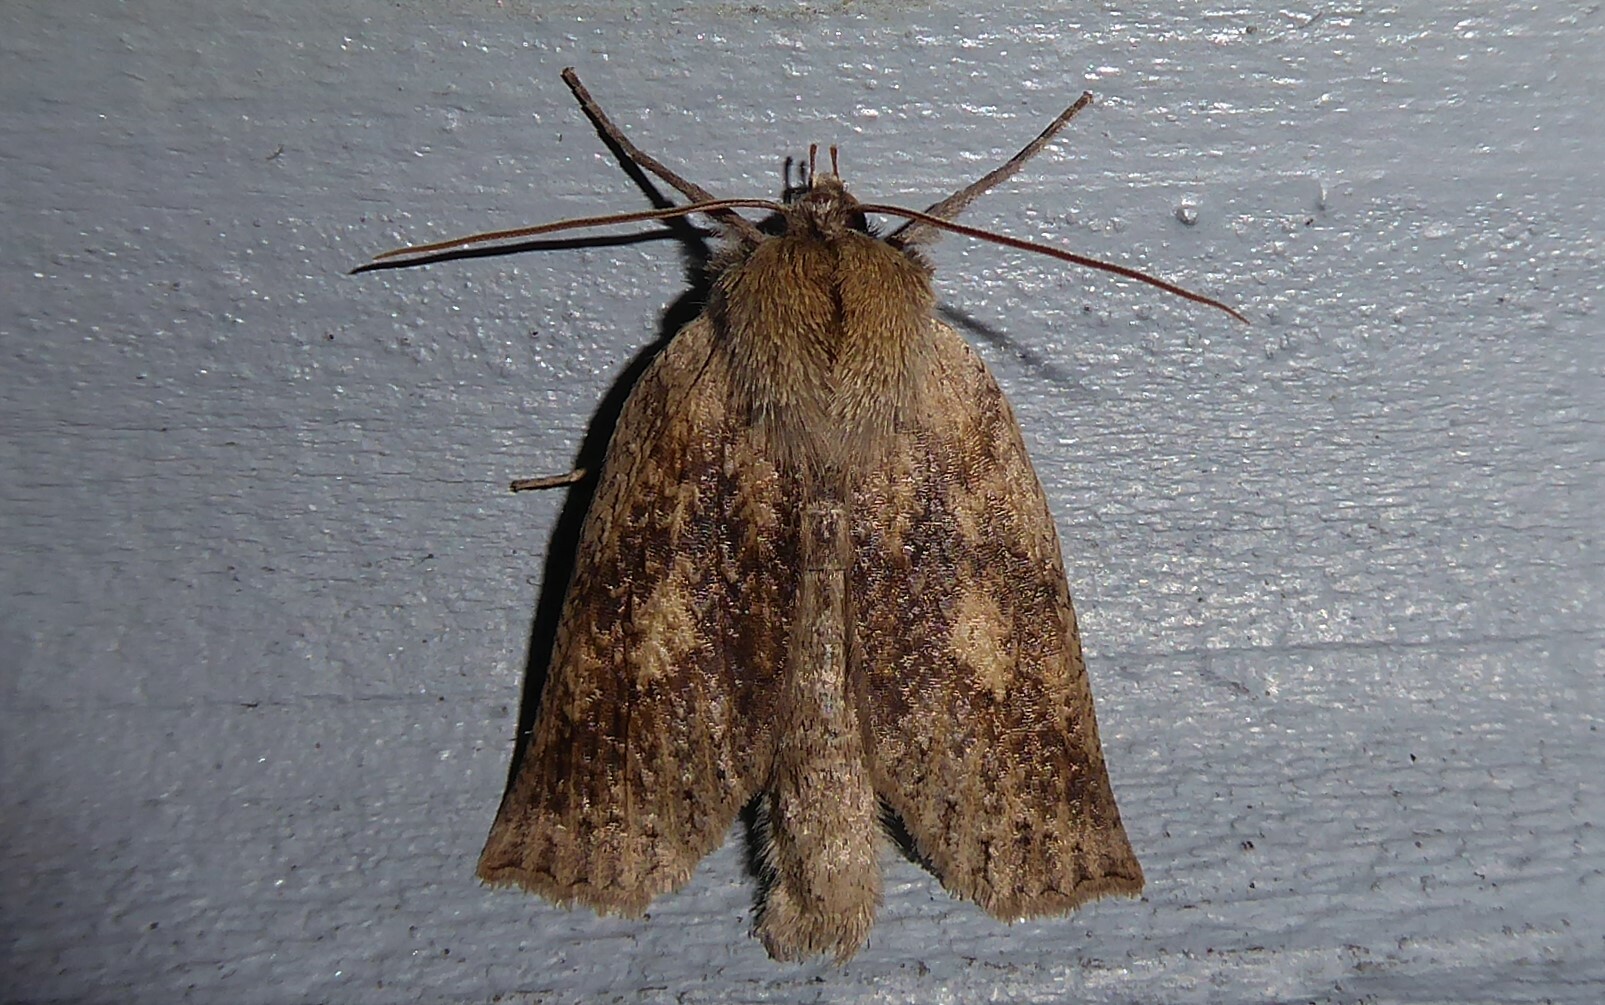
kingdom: Animalia
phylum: Arthropoda
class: Insecta
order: Lepidoptera
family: Geometridae
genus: Declana
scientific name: Declana leptomera
